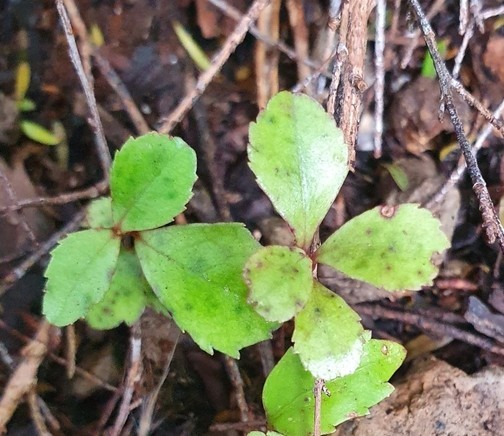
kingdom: Plantae
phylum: Tracheophyta
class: Magnoliopsida
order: Ericales
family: Primulaceae
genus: Myrsine
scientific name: Myrsine australis
